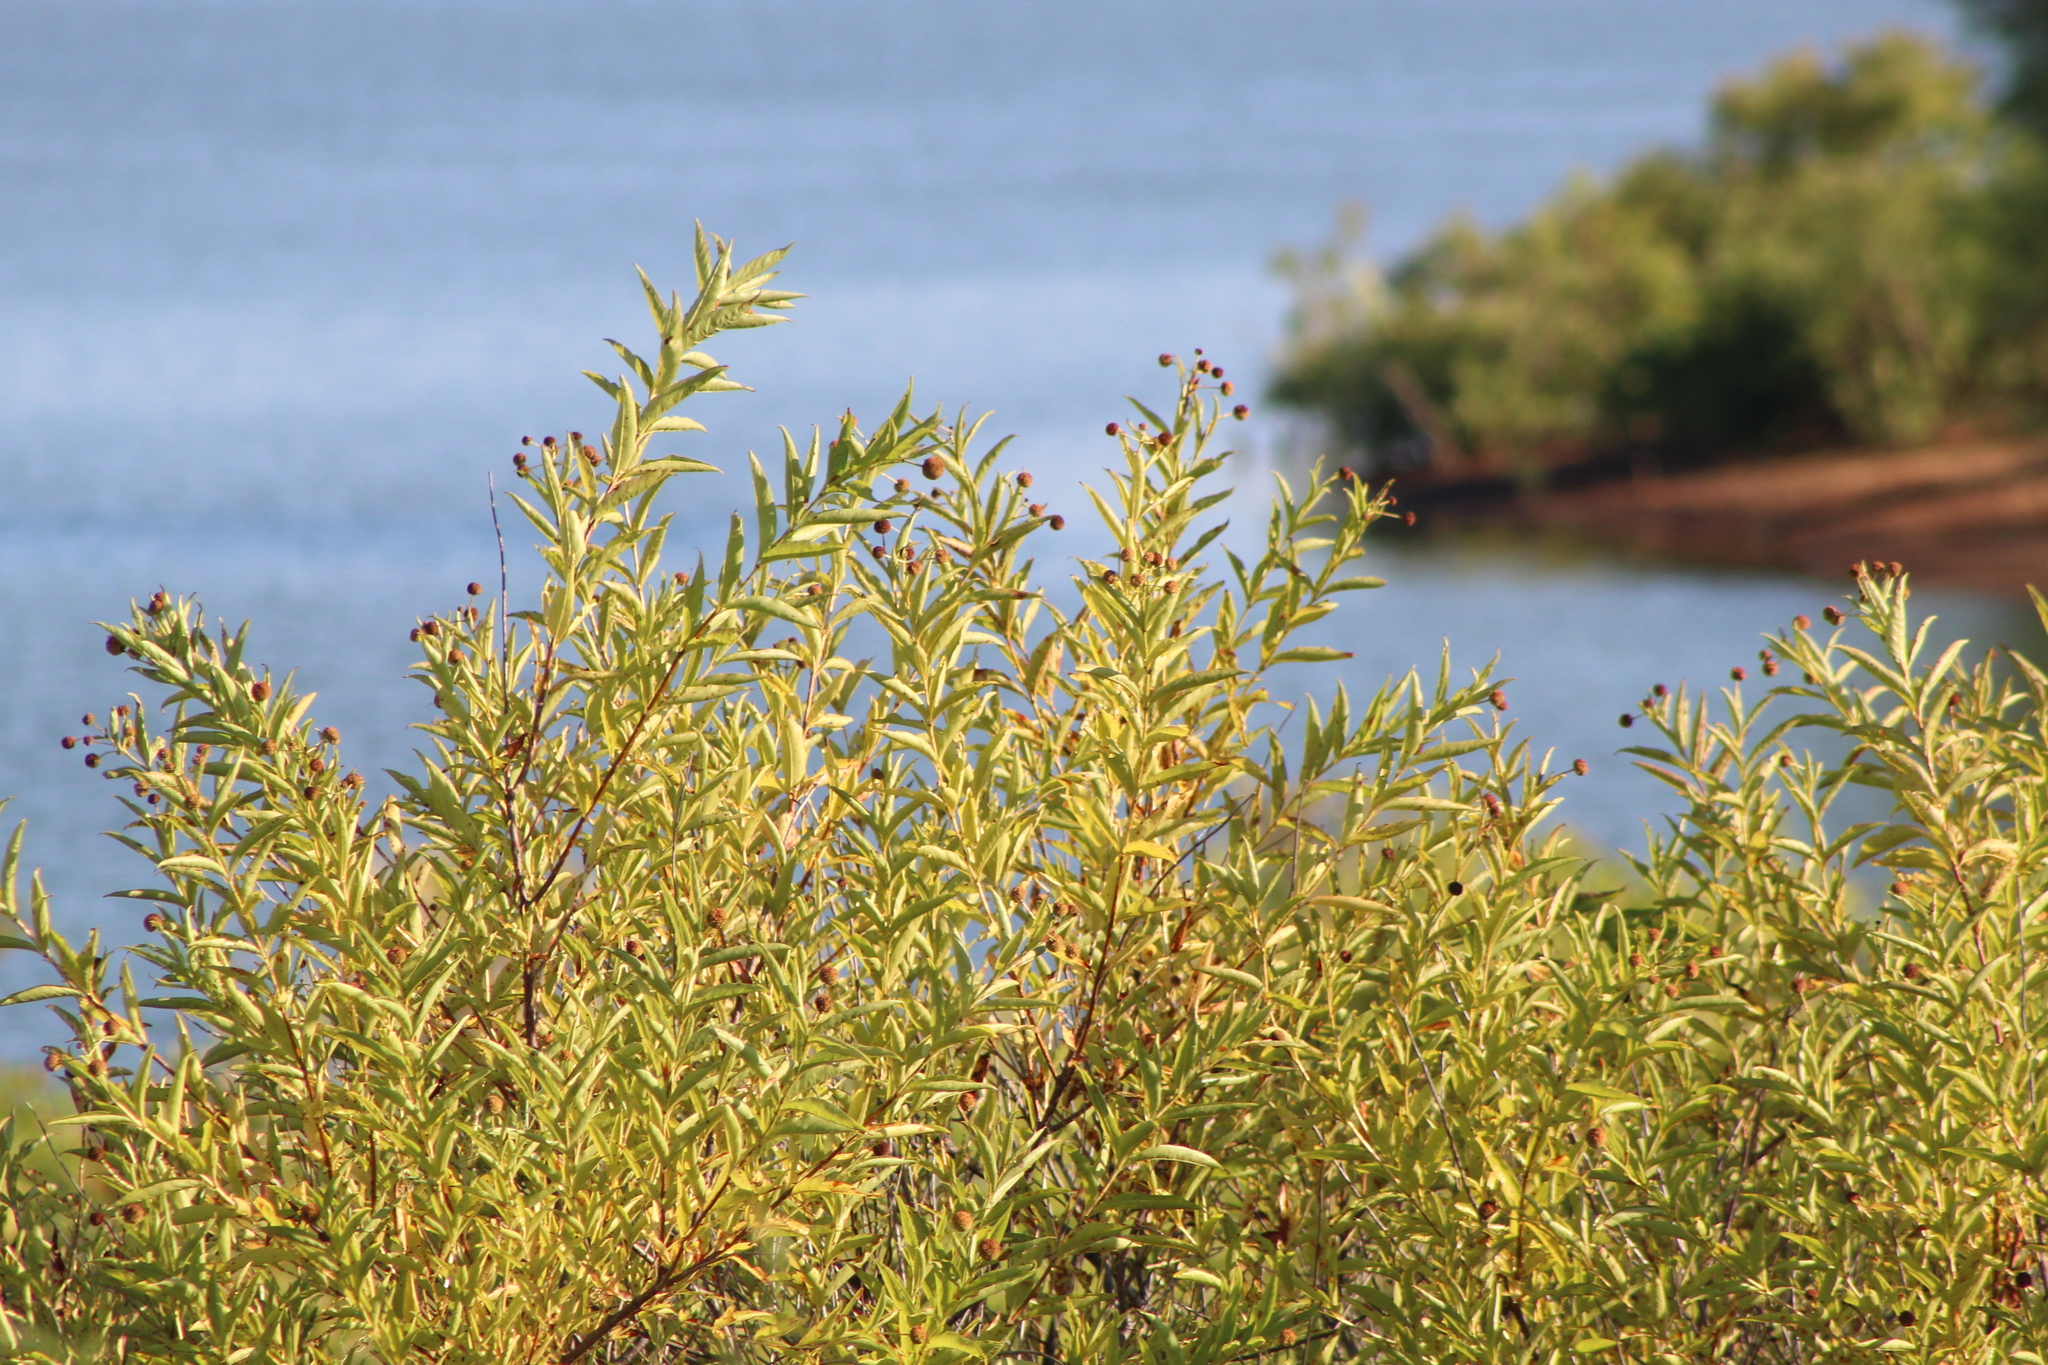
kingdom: Plantae
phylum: Tracheophyta
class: Magnoliopsida
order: Gentianales
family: Rubiaceae
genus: Cephalanthus
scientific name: Cephalanthus occidentalis
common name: Button-willow
